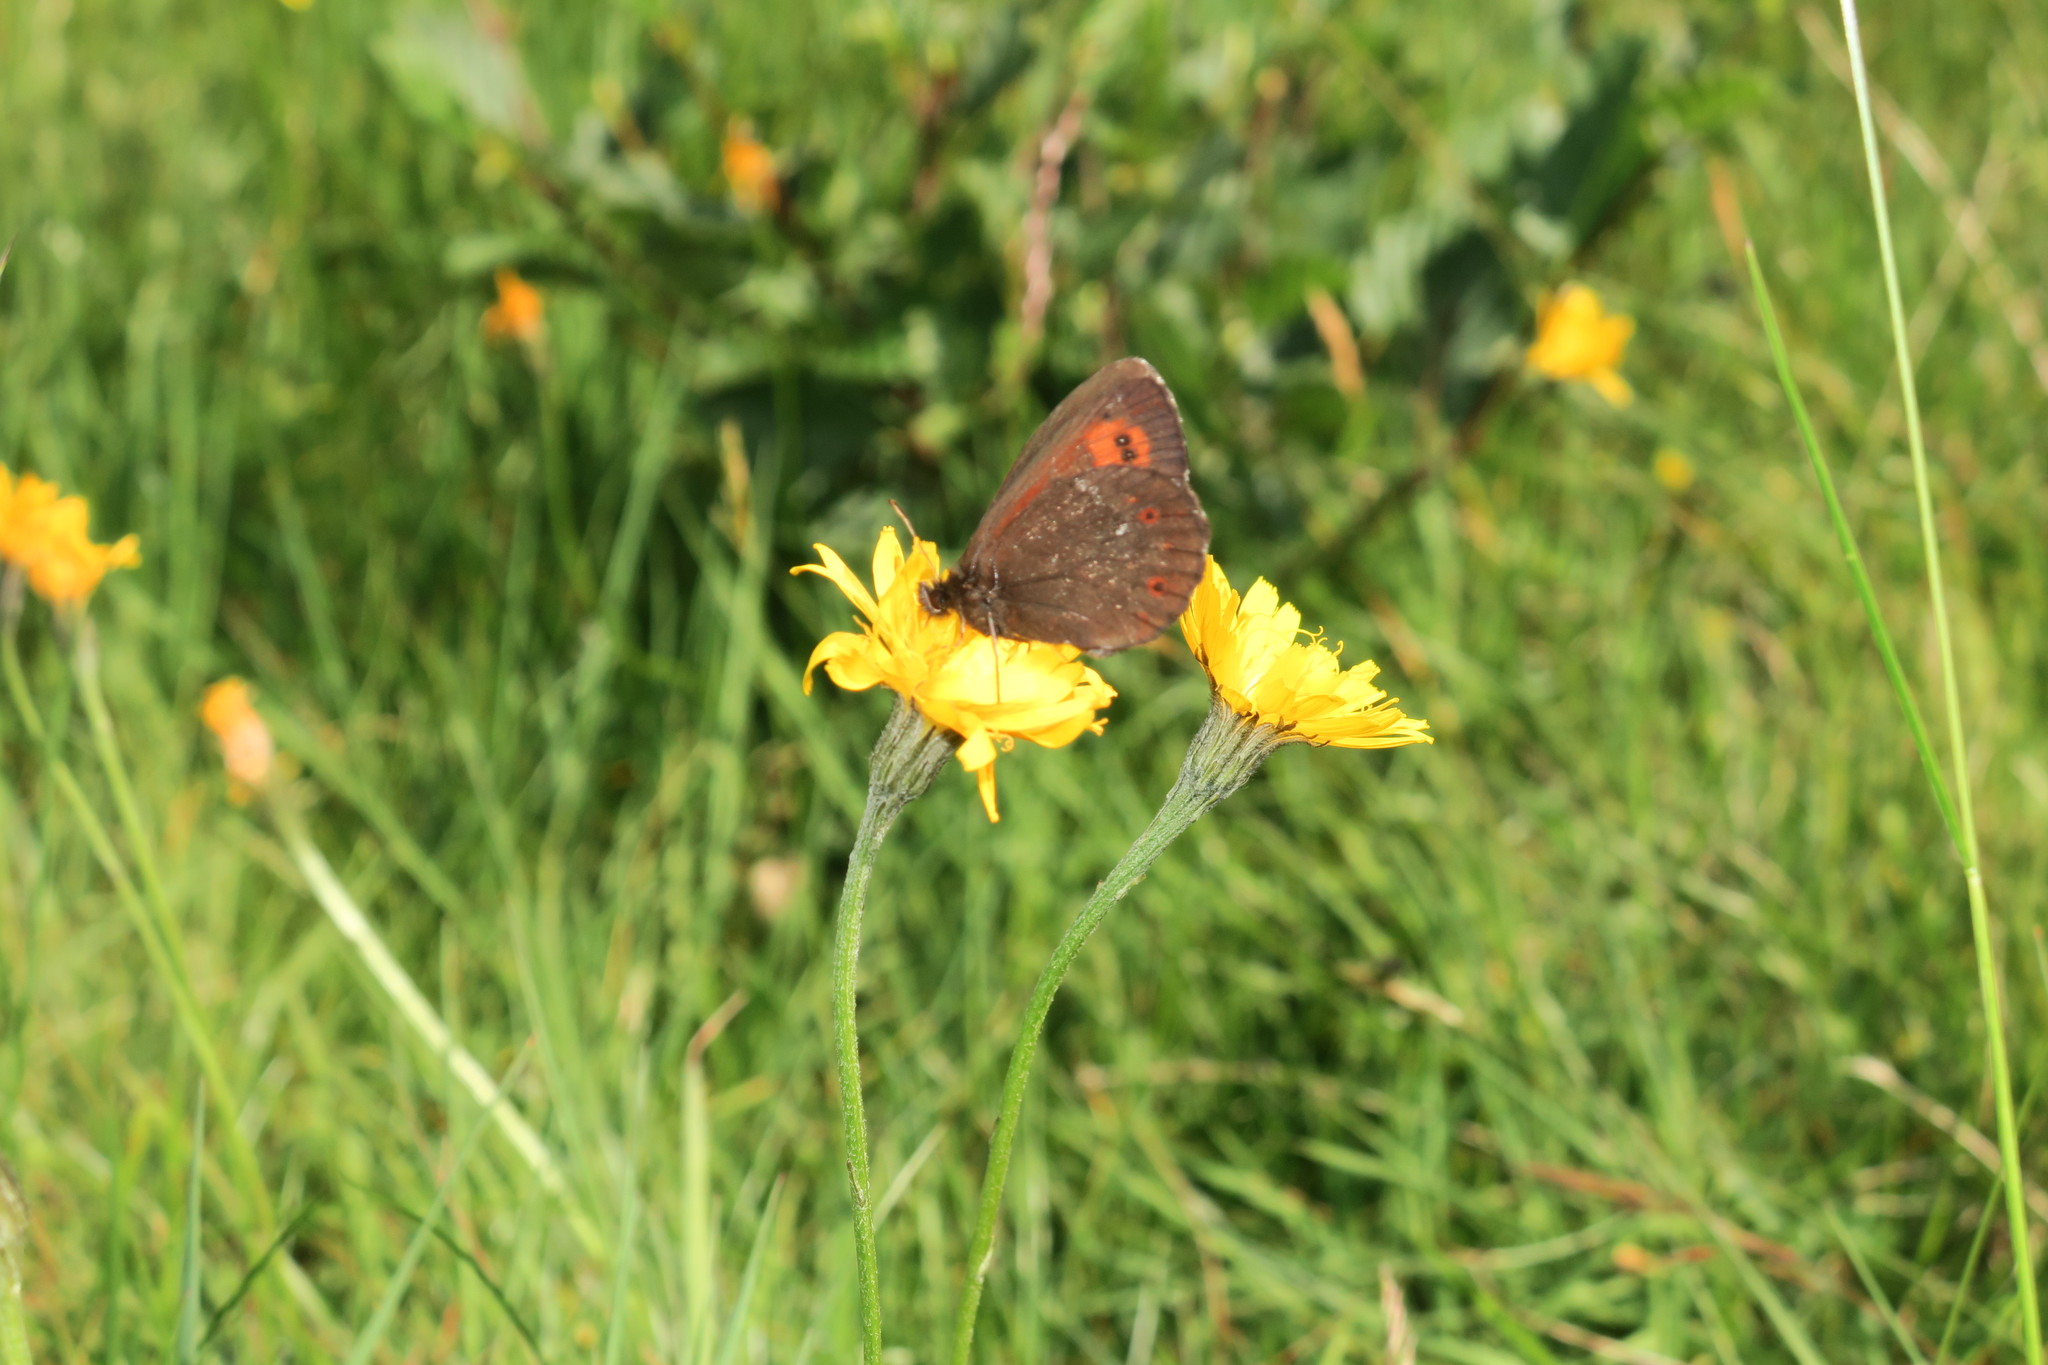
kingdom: Animalia
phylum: Arthropoda
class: Insecta
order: Lepidoptera
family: Nymphalidae
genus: Erebia
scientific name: Erebia euryale
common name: Large ringlet
